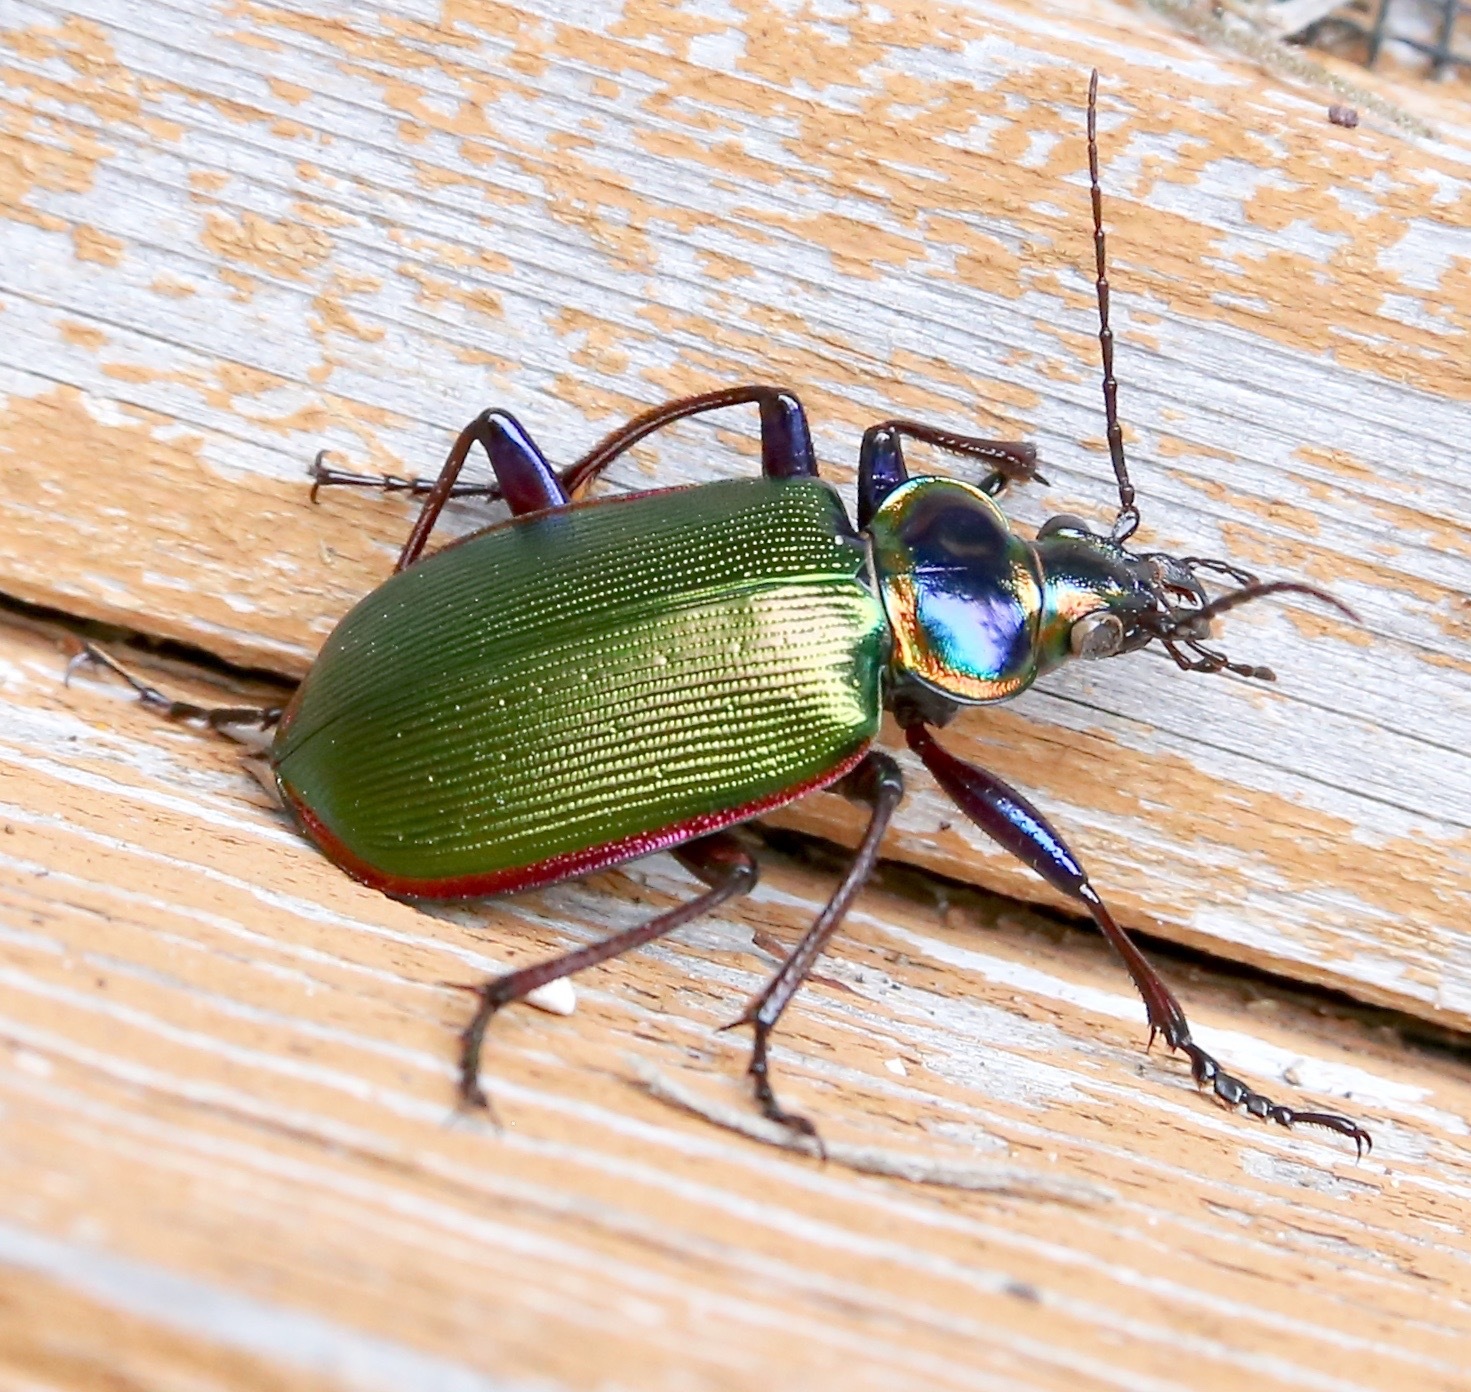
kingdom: Animalia
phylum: Arthropoda
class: Insecta
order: Coleoptera
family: Carabidae
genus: Calosoma
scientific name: Calosoma scrutator
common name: Fiery searcher beetle
